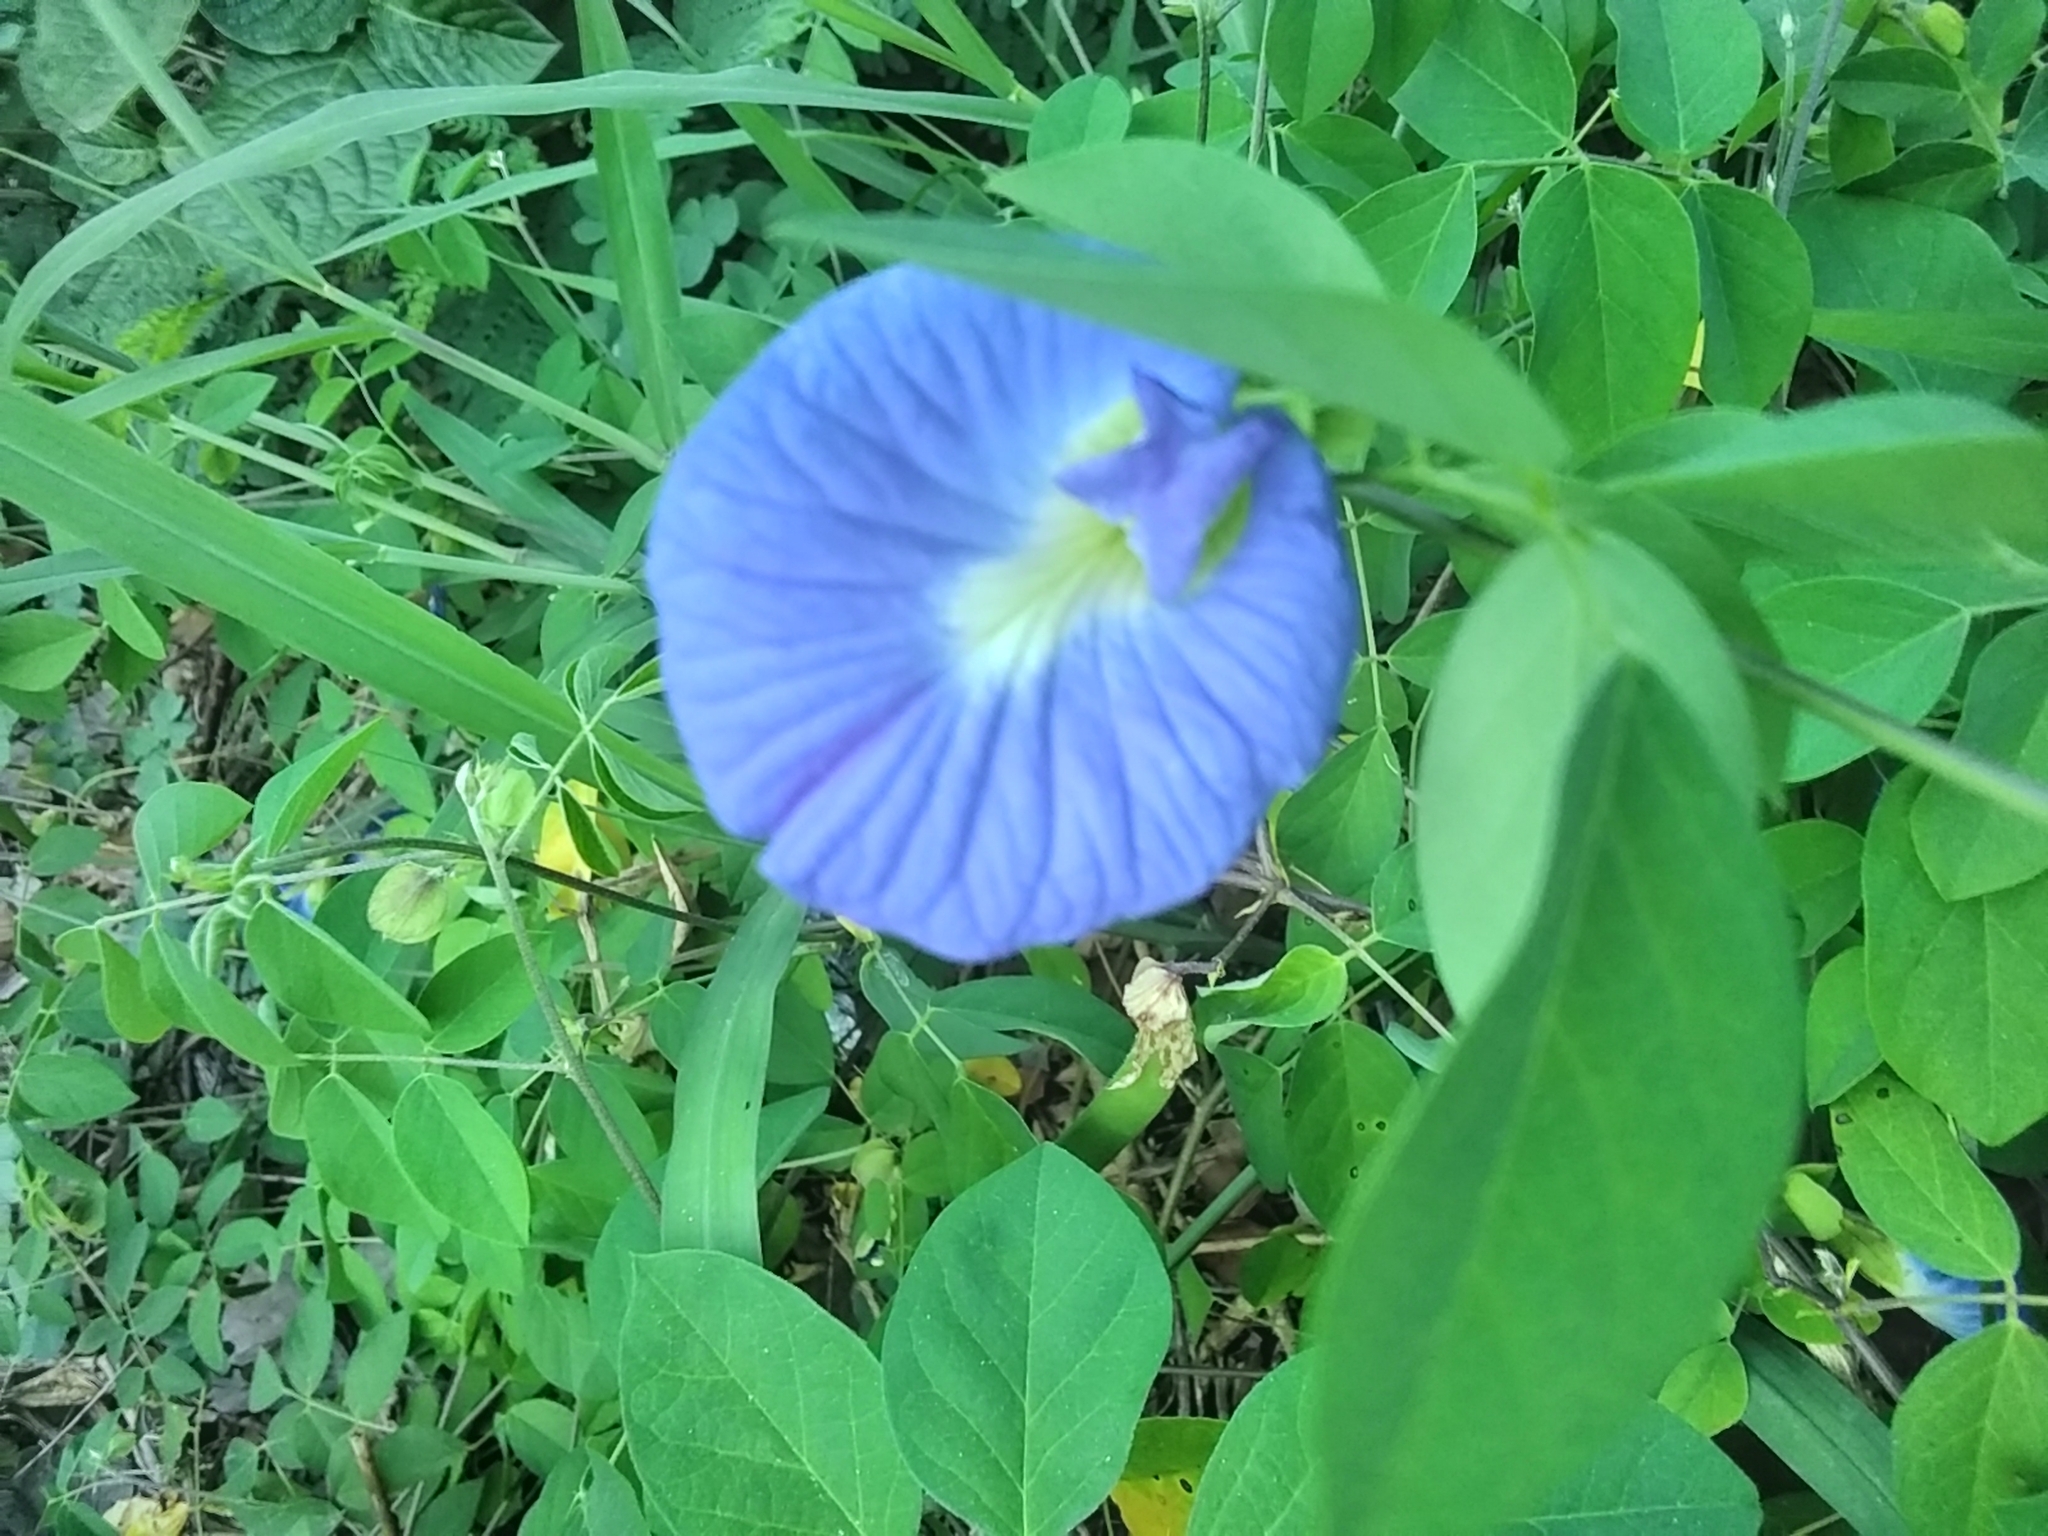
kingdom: Plantae
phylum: Tracheophyta
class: Magnoliopsida
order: Fabales
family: Fabaceae
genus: Clitoria
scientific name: Clitoria ternatea
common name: Asian pigeonwings
